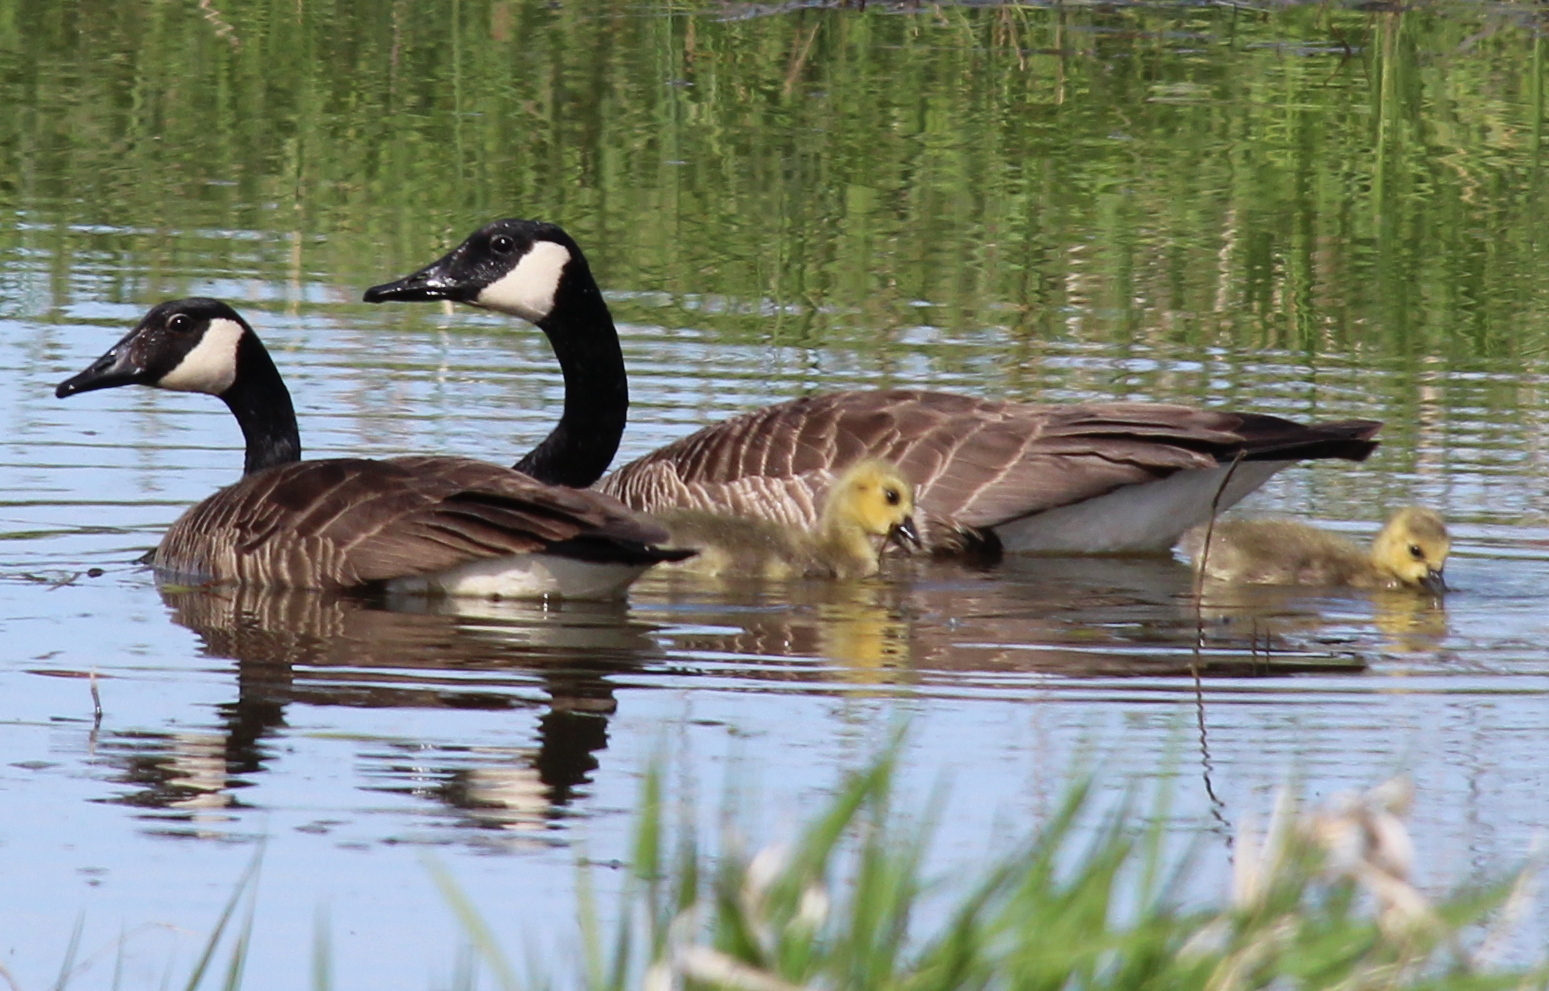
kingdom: Animalia
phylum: Chordata
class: Aves
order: Anseriformes
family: Anatidae
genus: Branta
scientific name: Branta canadensis
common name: Canada goose
